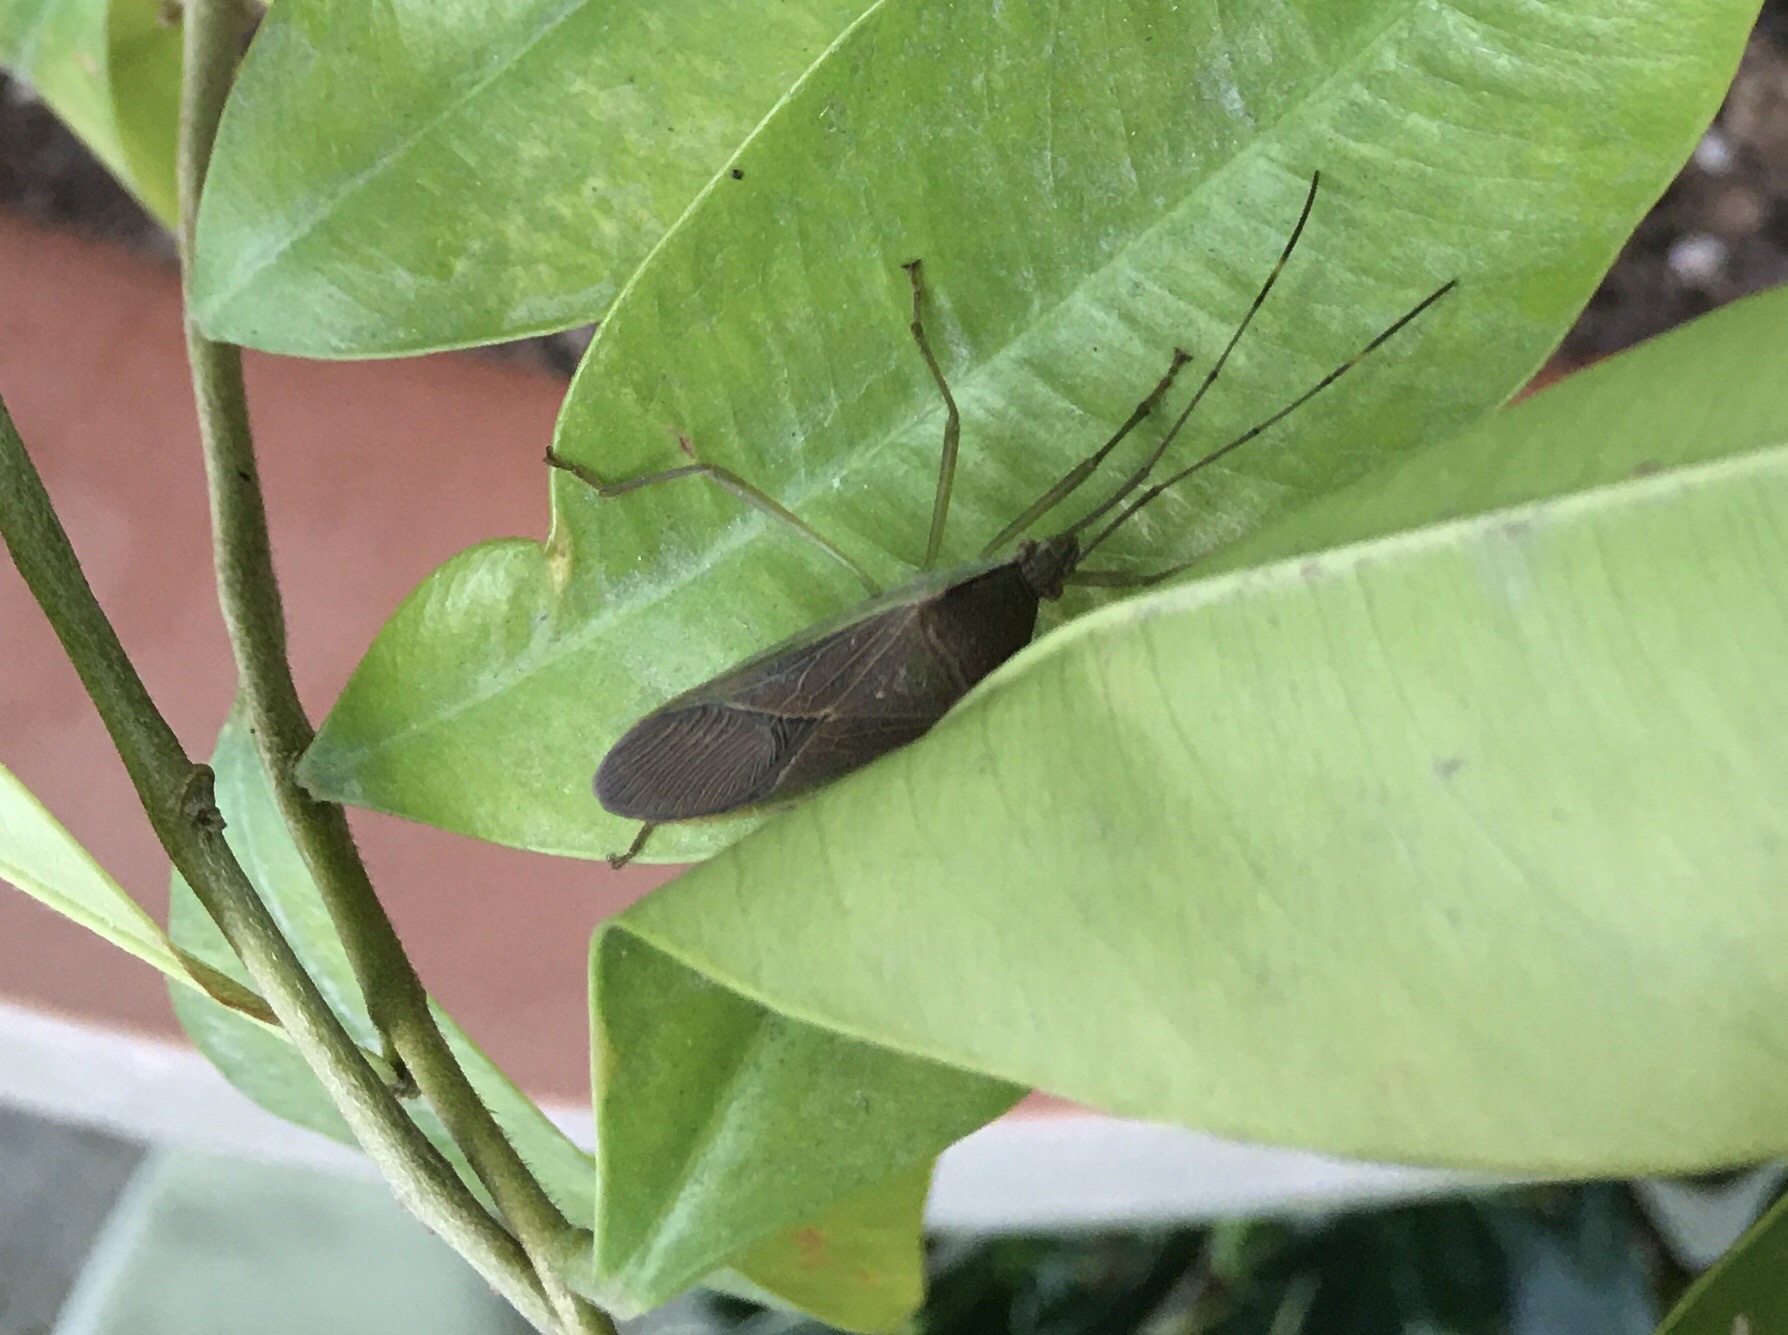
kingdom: Animalia
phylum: Arthropoda
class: Insecta
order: Hemiptera
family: Coreidae
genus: Paradasynus
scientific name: Paradasynus spinosus
